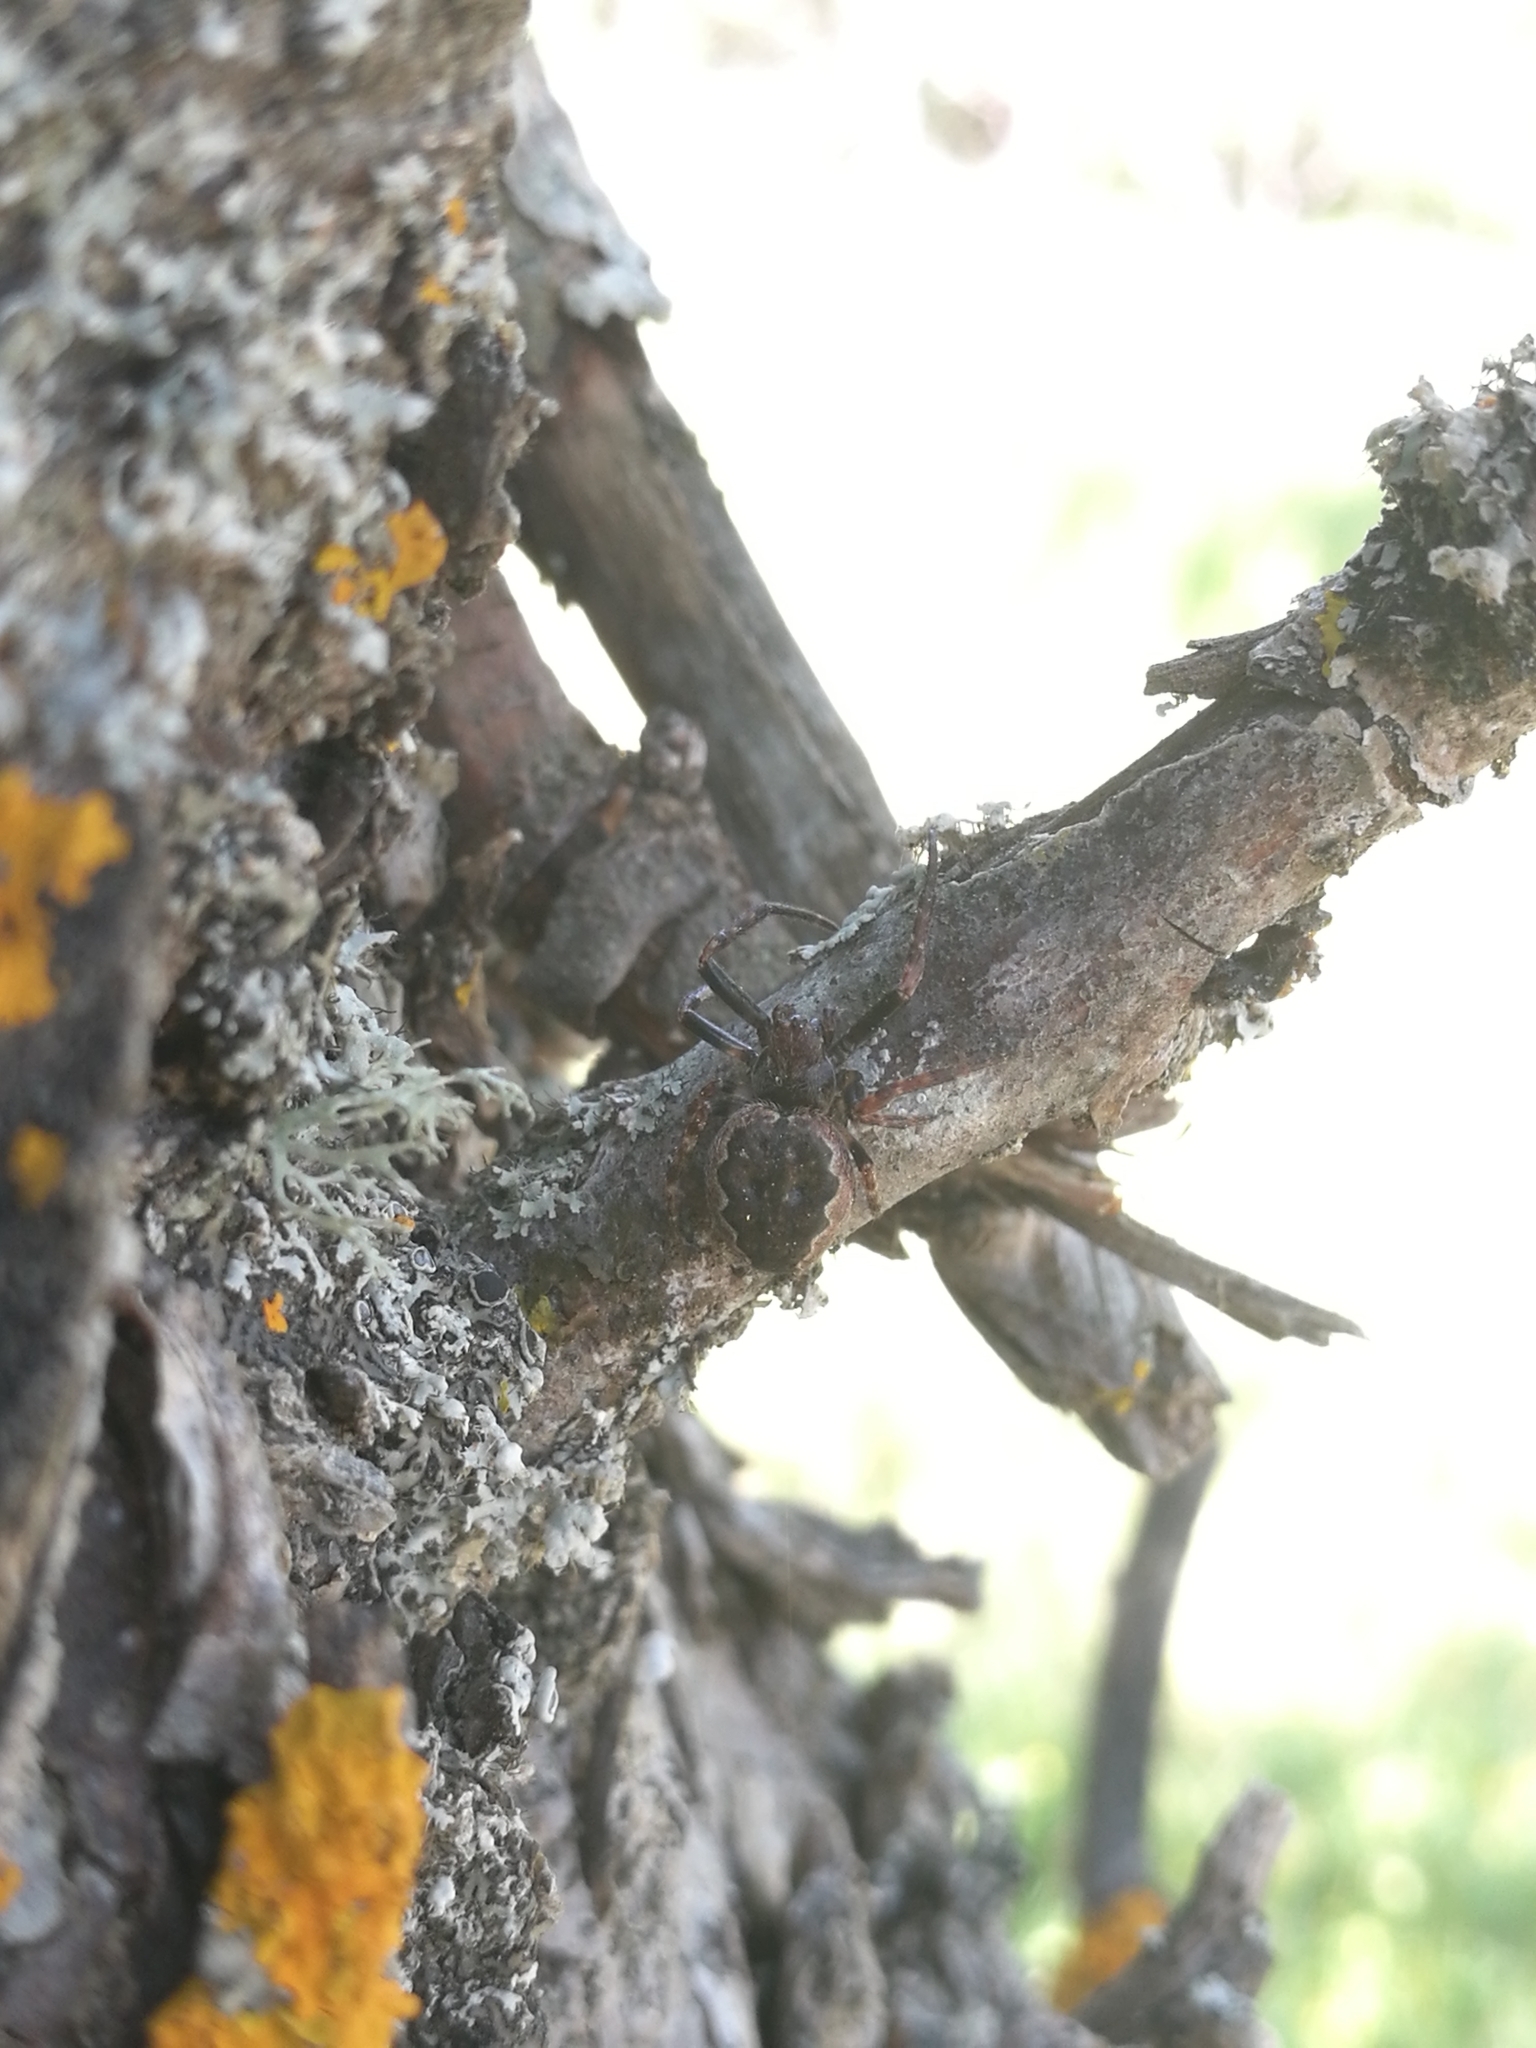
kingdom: Animalia
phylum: Arthropoda
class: Arachnida
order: Araneae
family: Araneidae
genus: Nuctenea
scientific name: Nuctenea umbratica
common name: Toad spider
